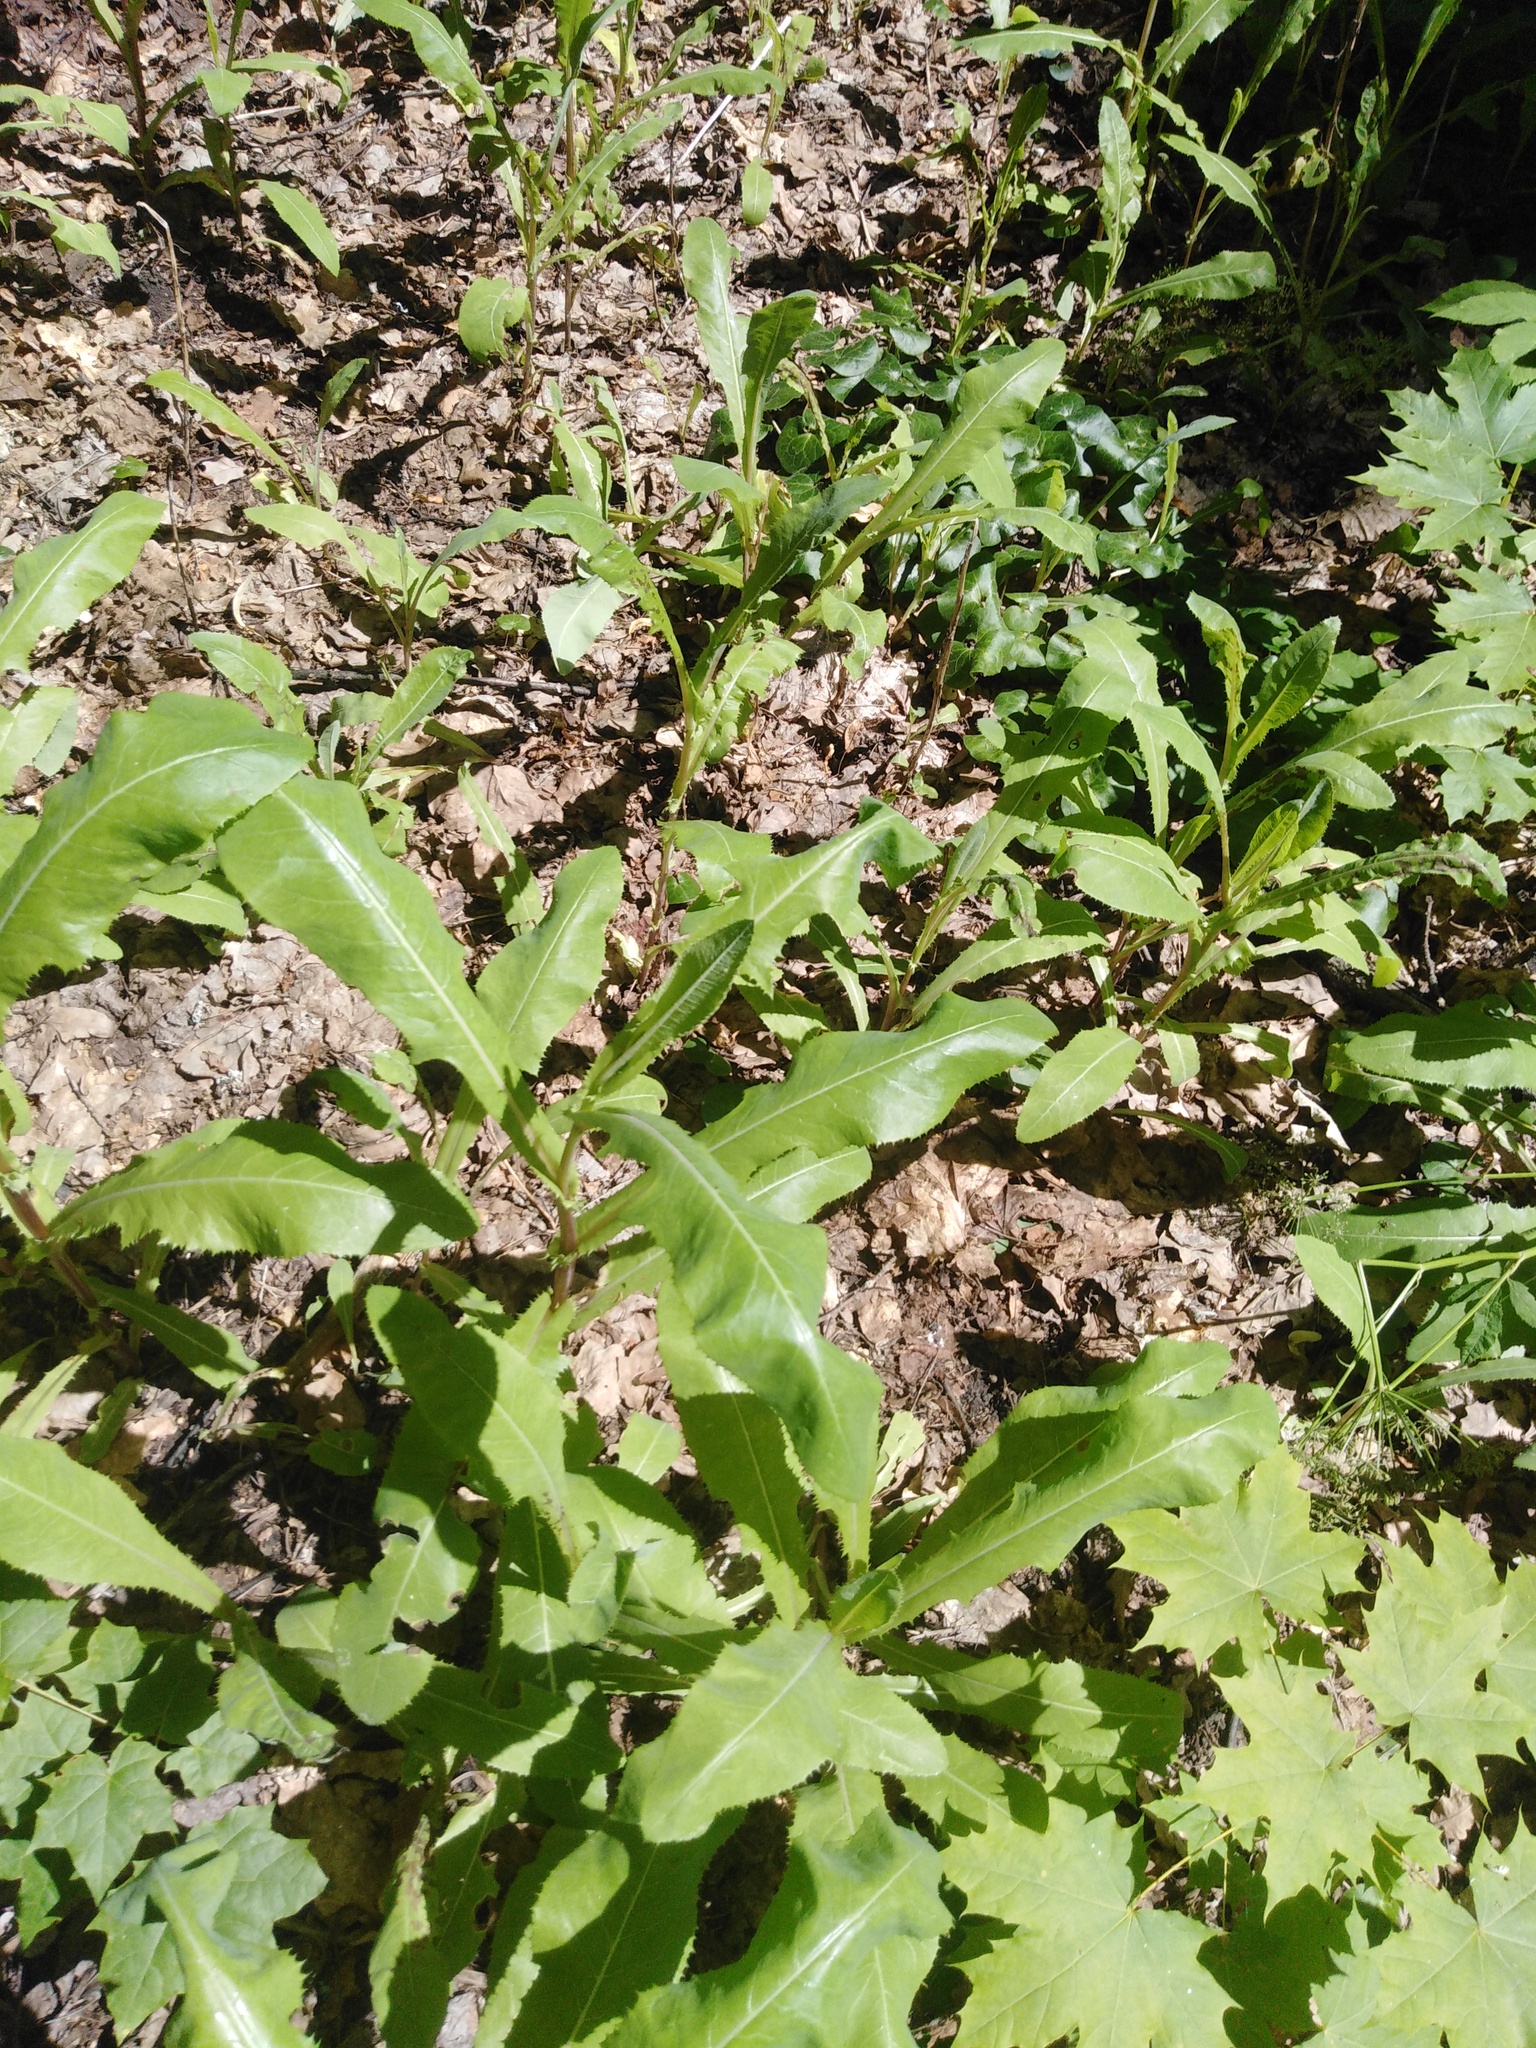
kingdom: Plantae
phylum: Tracheophyta
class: Magnoliopsida
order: Asterales
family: Asteraceae
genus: Sonchus
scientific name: Sonchus arvensis
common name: Perennial sow-thistle
